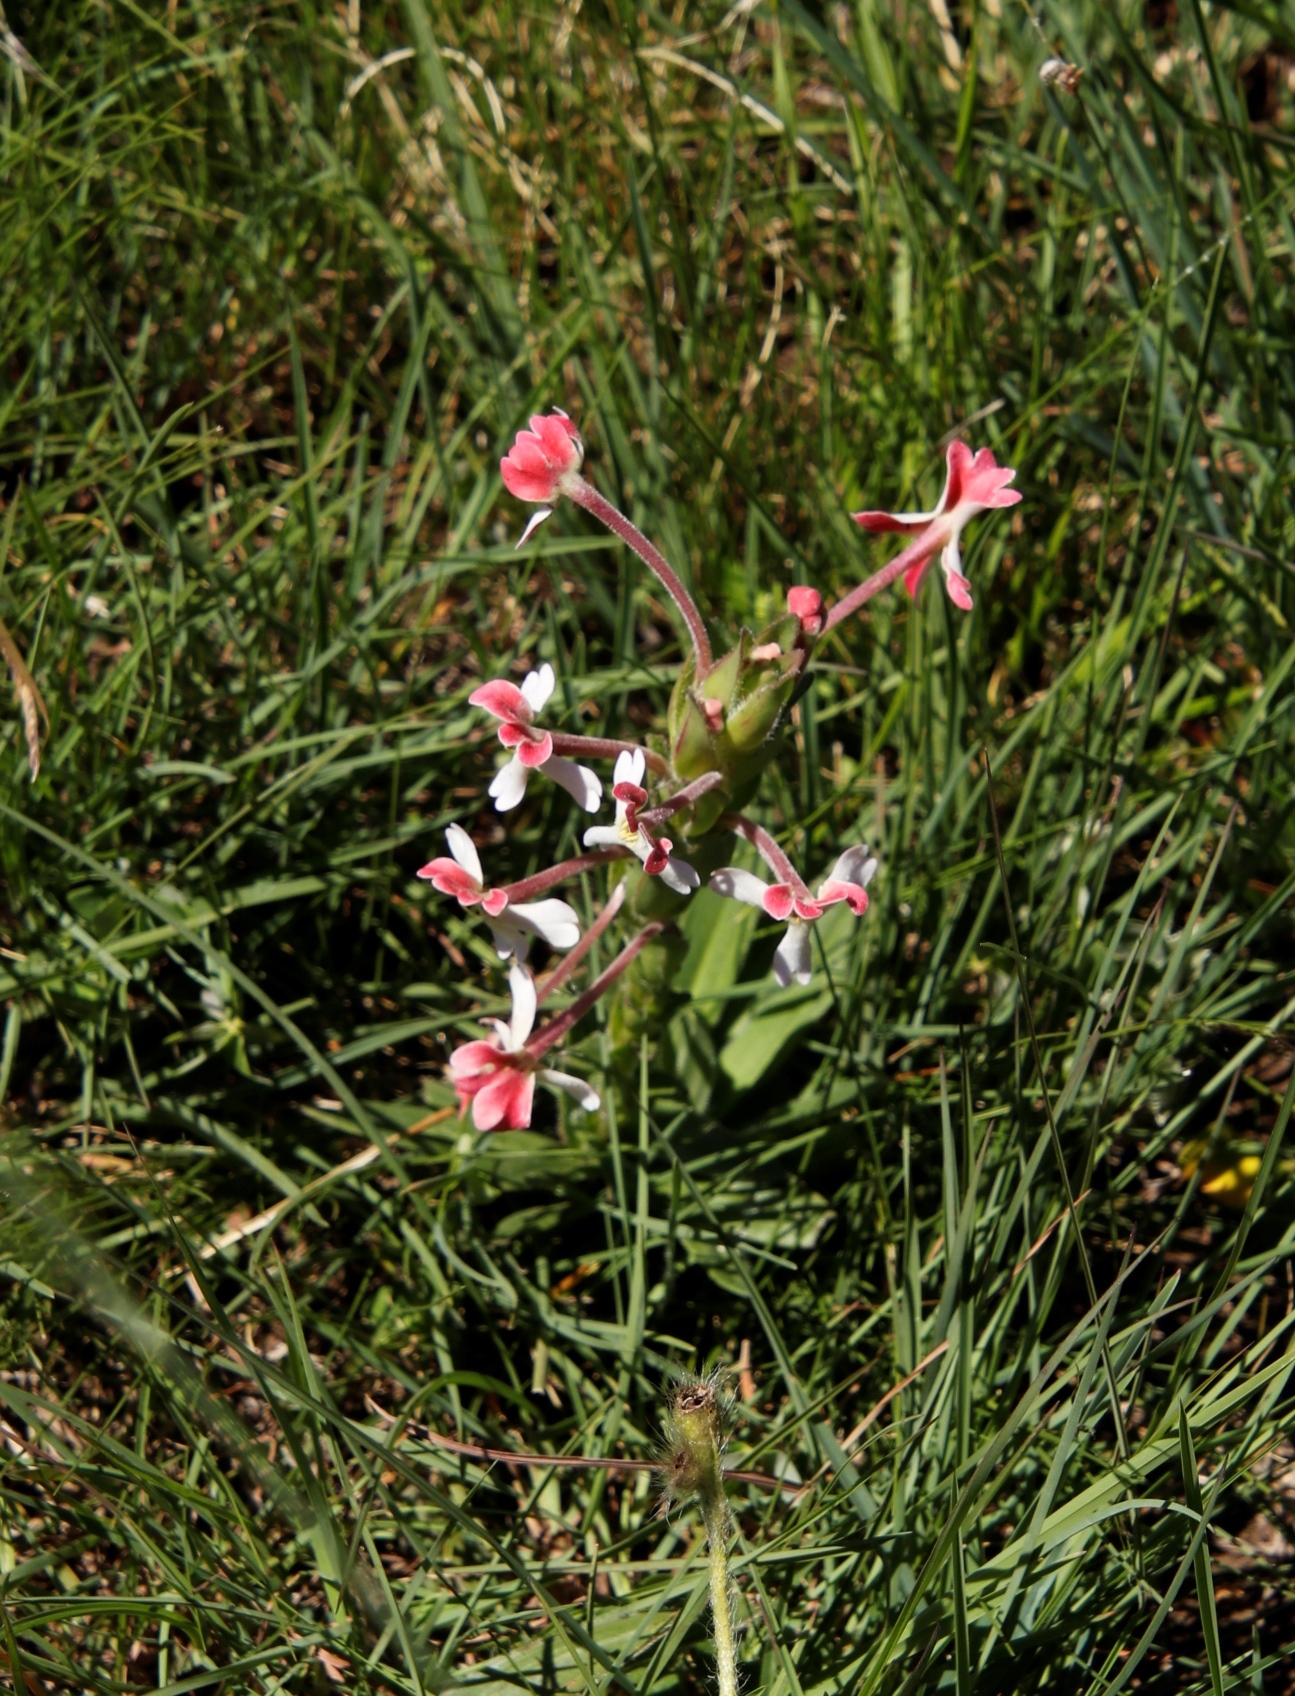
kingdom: Plantae
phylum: Tracheophyta
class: Magnoliopsida
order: Lamiales
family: Scrophulariaceae
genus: Zaluzianskya
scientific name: Zaluzianskya microsiphon
